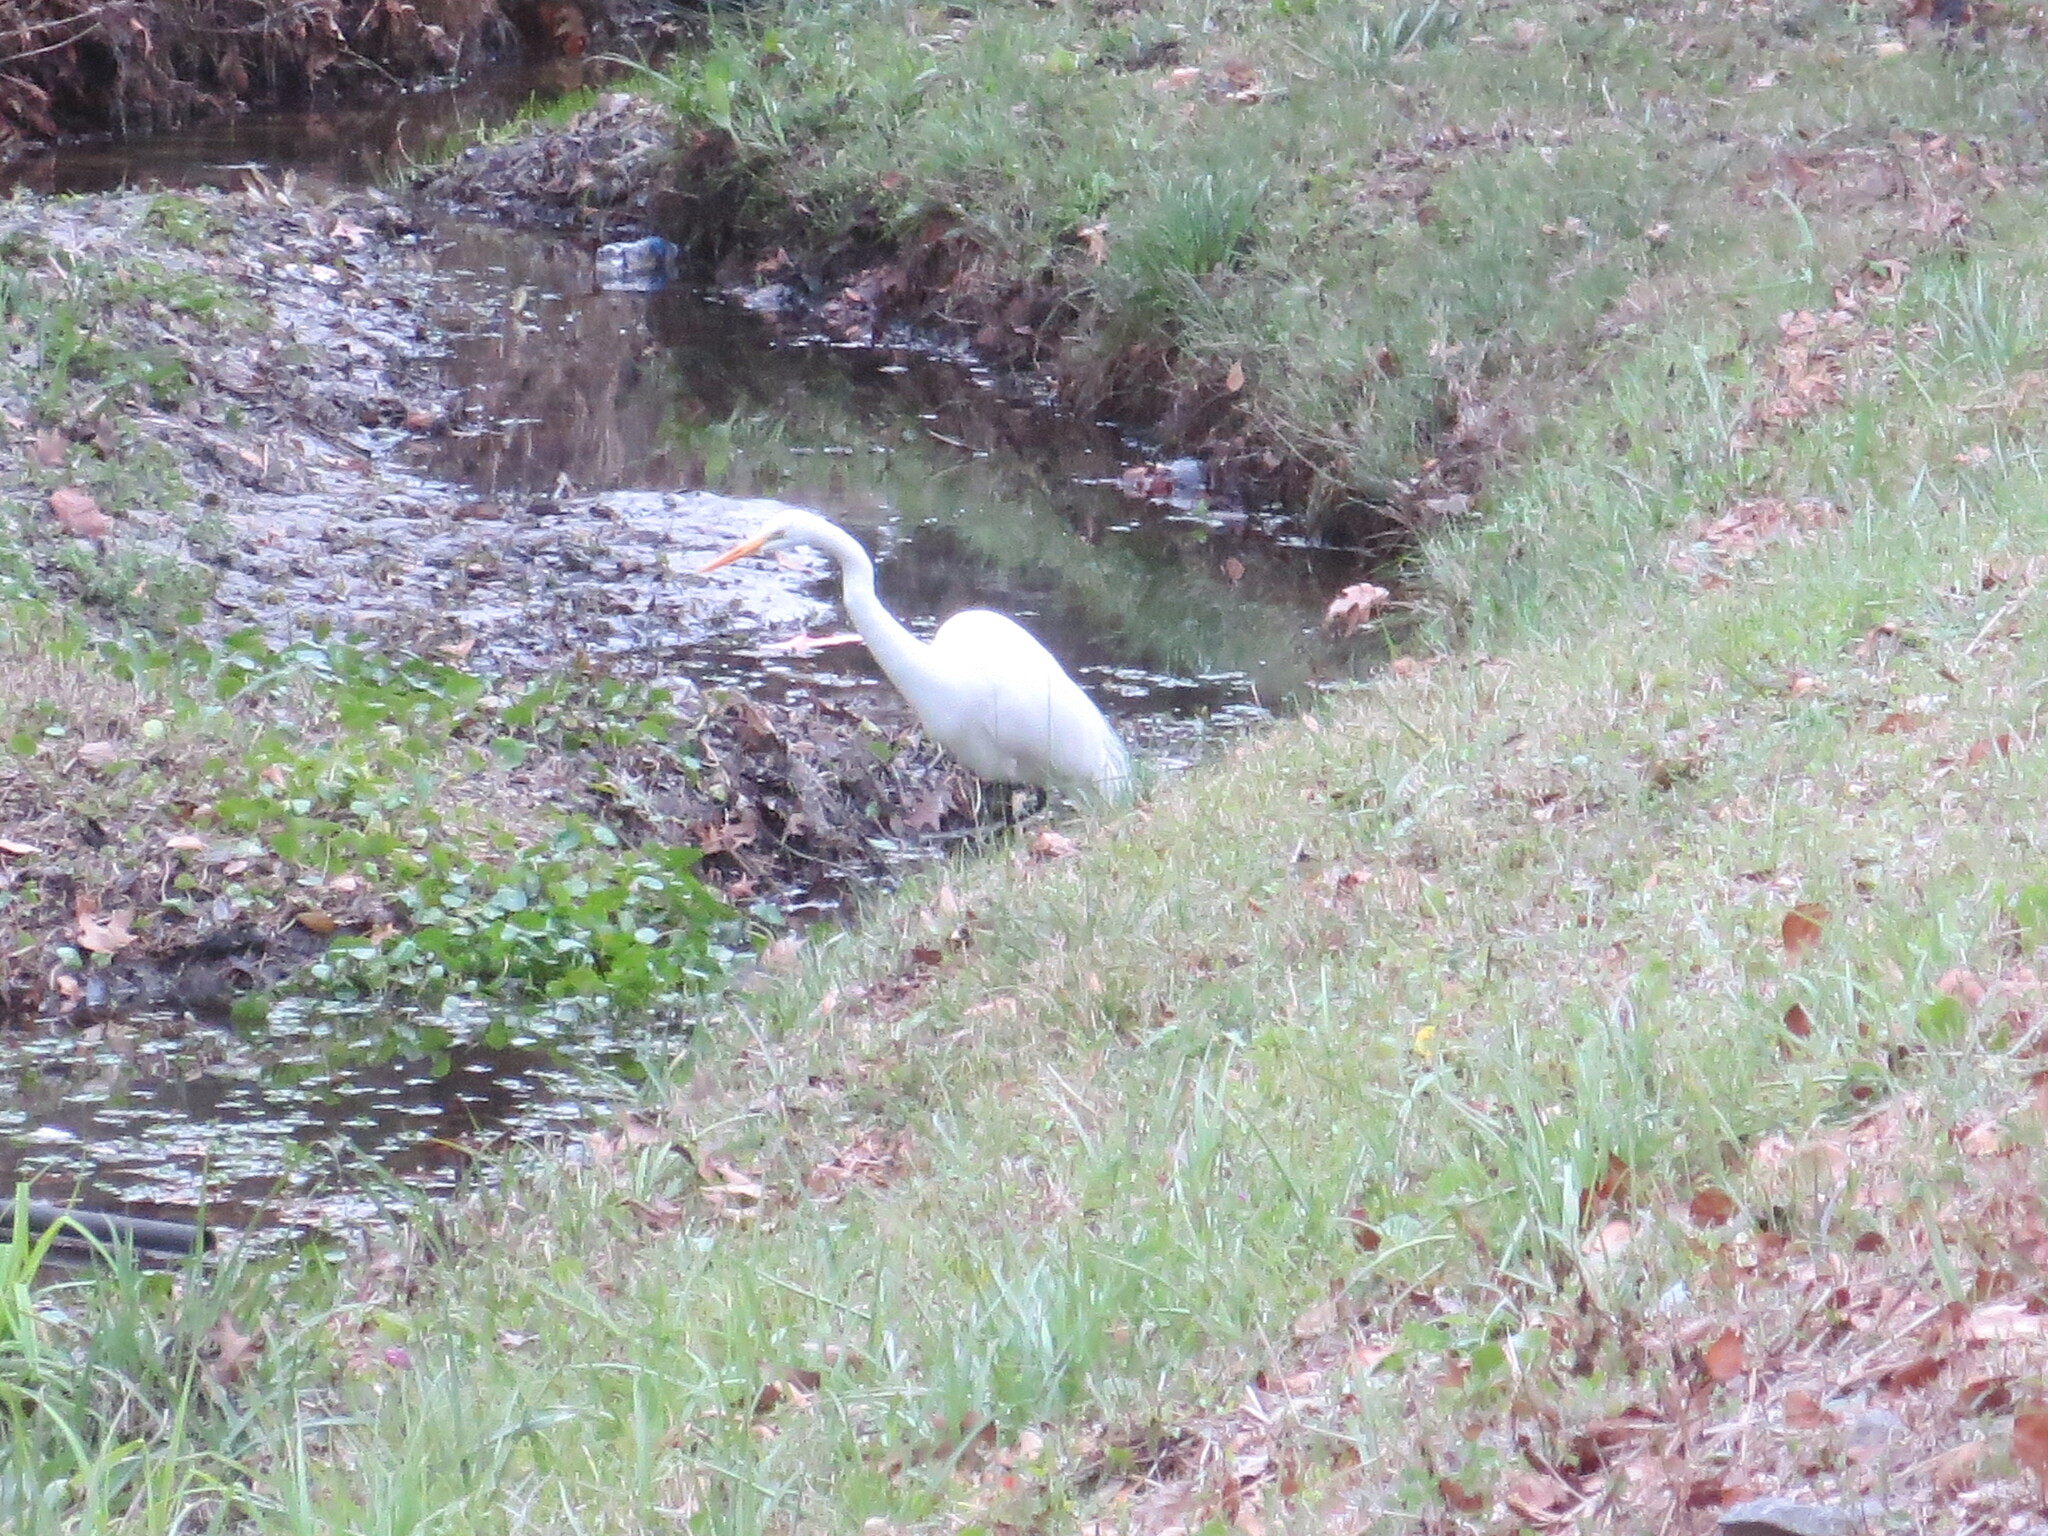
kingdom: Animalia
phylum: Chordata
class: Aves
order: Pelecaniformes
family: Ardeidae
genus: Ardea
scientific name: Ardea alba
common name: Great egret
